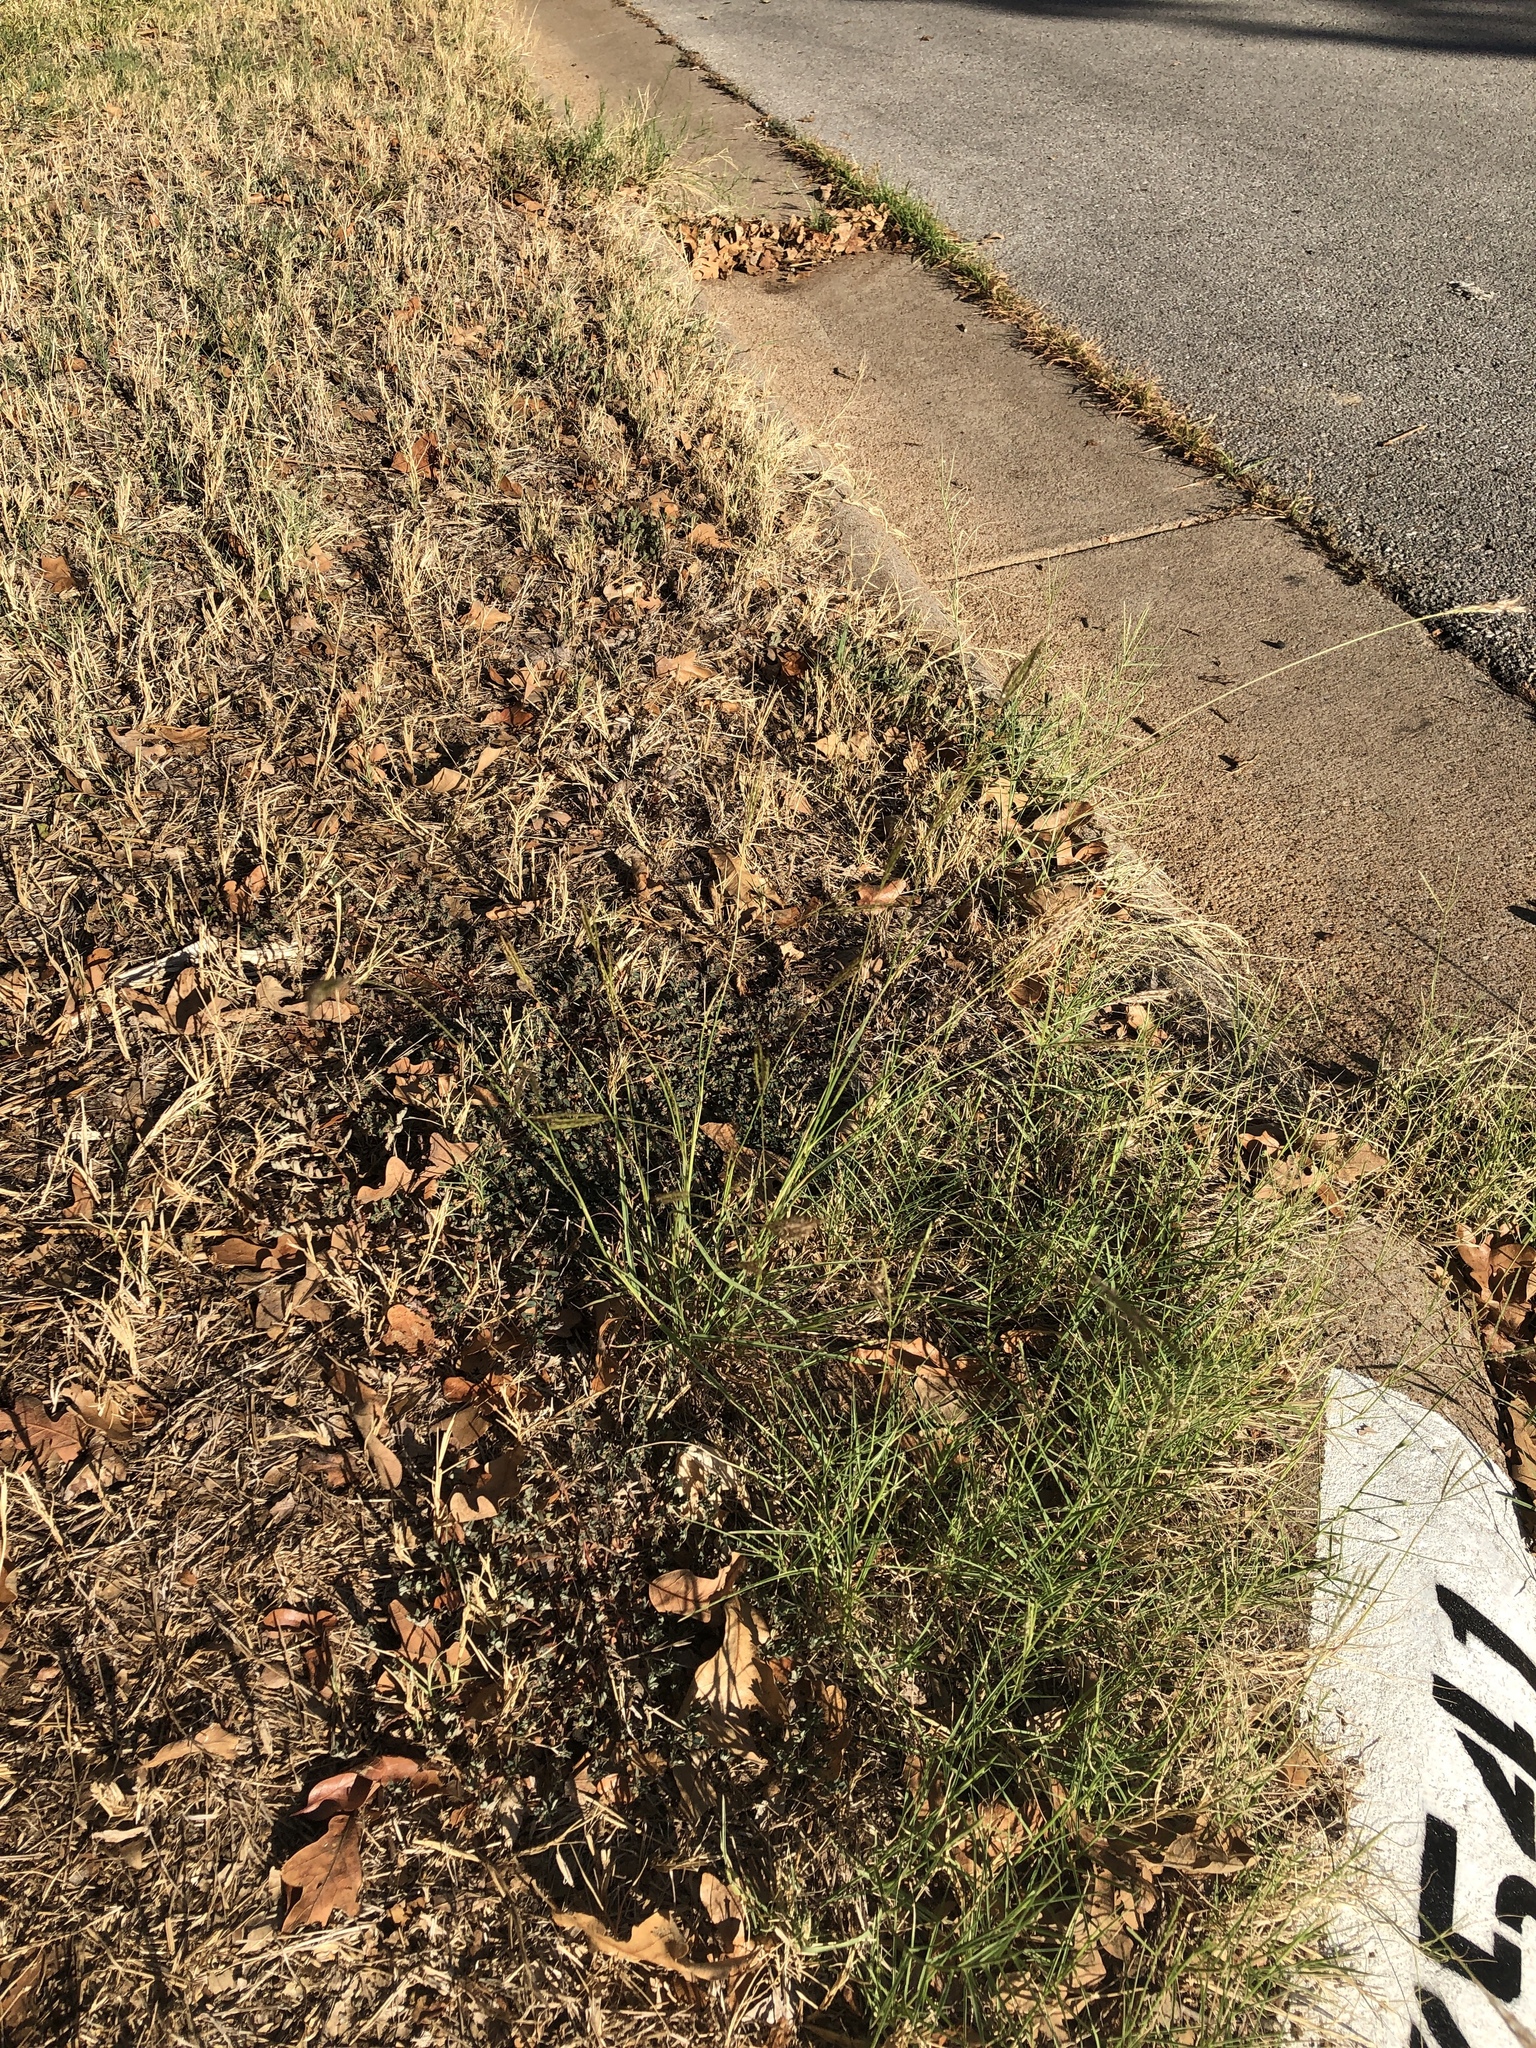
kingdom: Plantae
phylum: Tracheophyta
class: Liliopsida
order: Poales
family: Poaceae
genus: Bothriochloa
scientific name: Bothriochloa ischaemum
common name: Yellow bluestem
